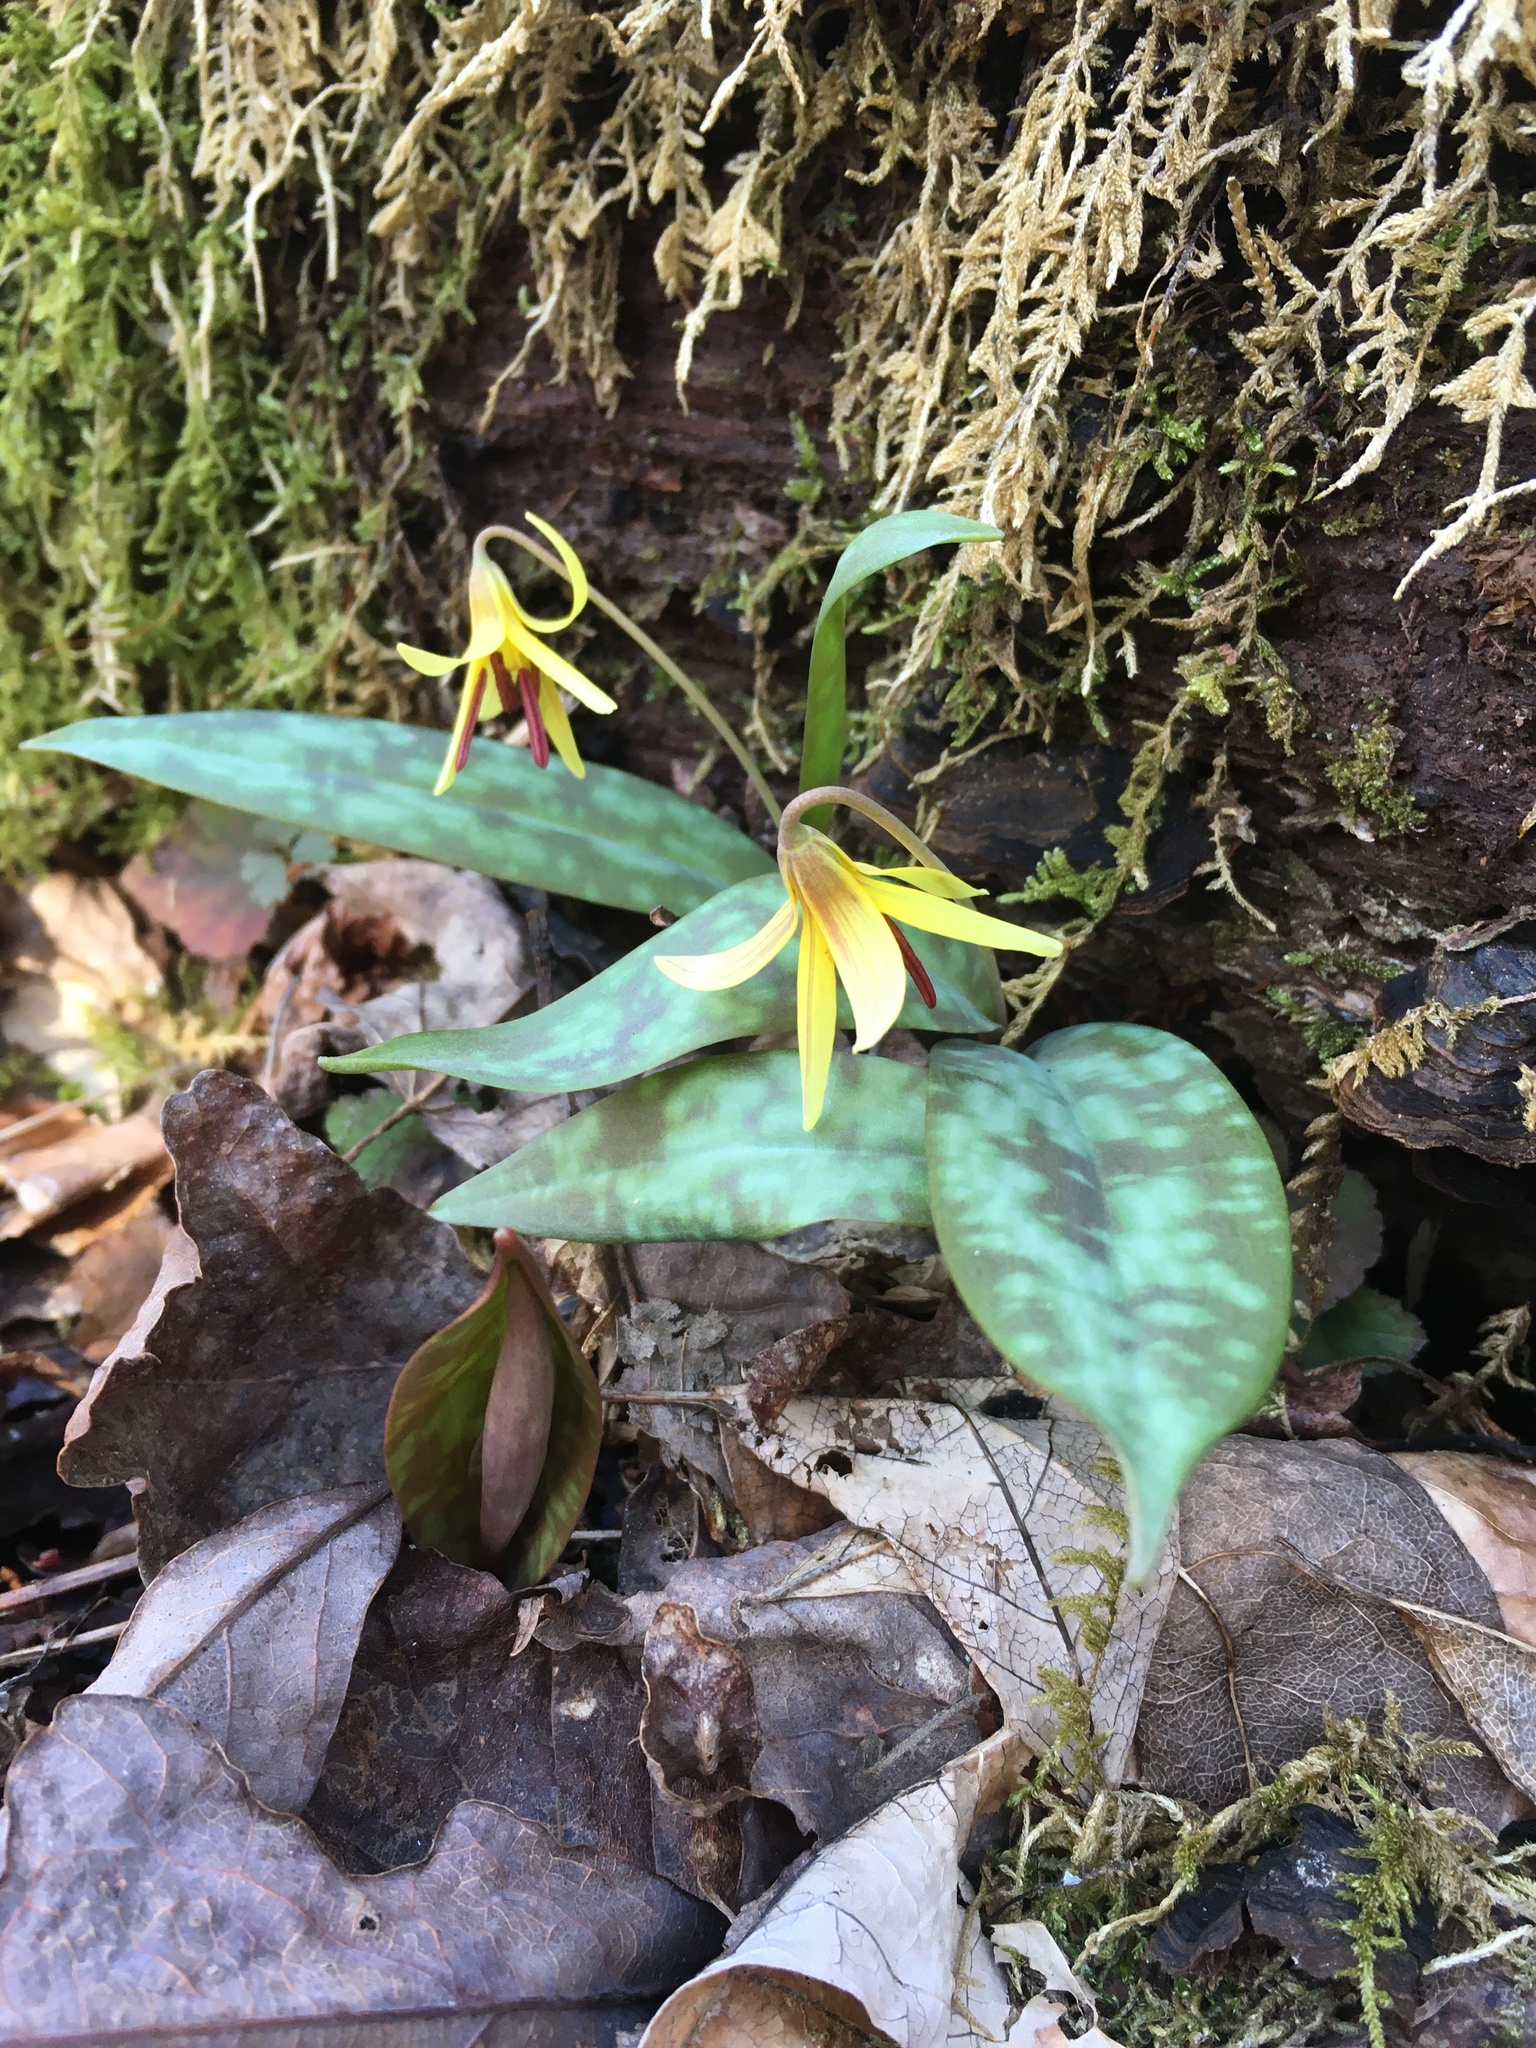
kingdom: Plantae
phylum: Tracheophyta
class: Liliopsida
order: Liliales
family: Liliaceae
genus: Erythronium
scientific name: Erythronium umbilicatum
